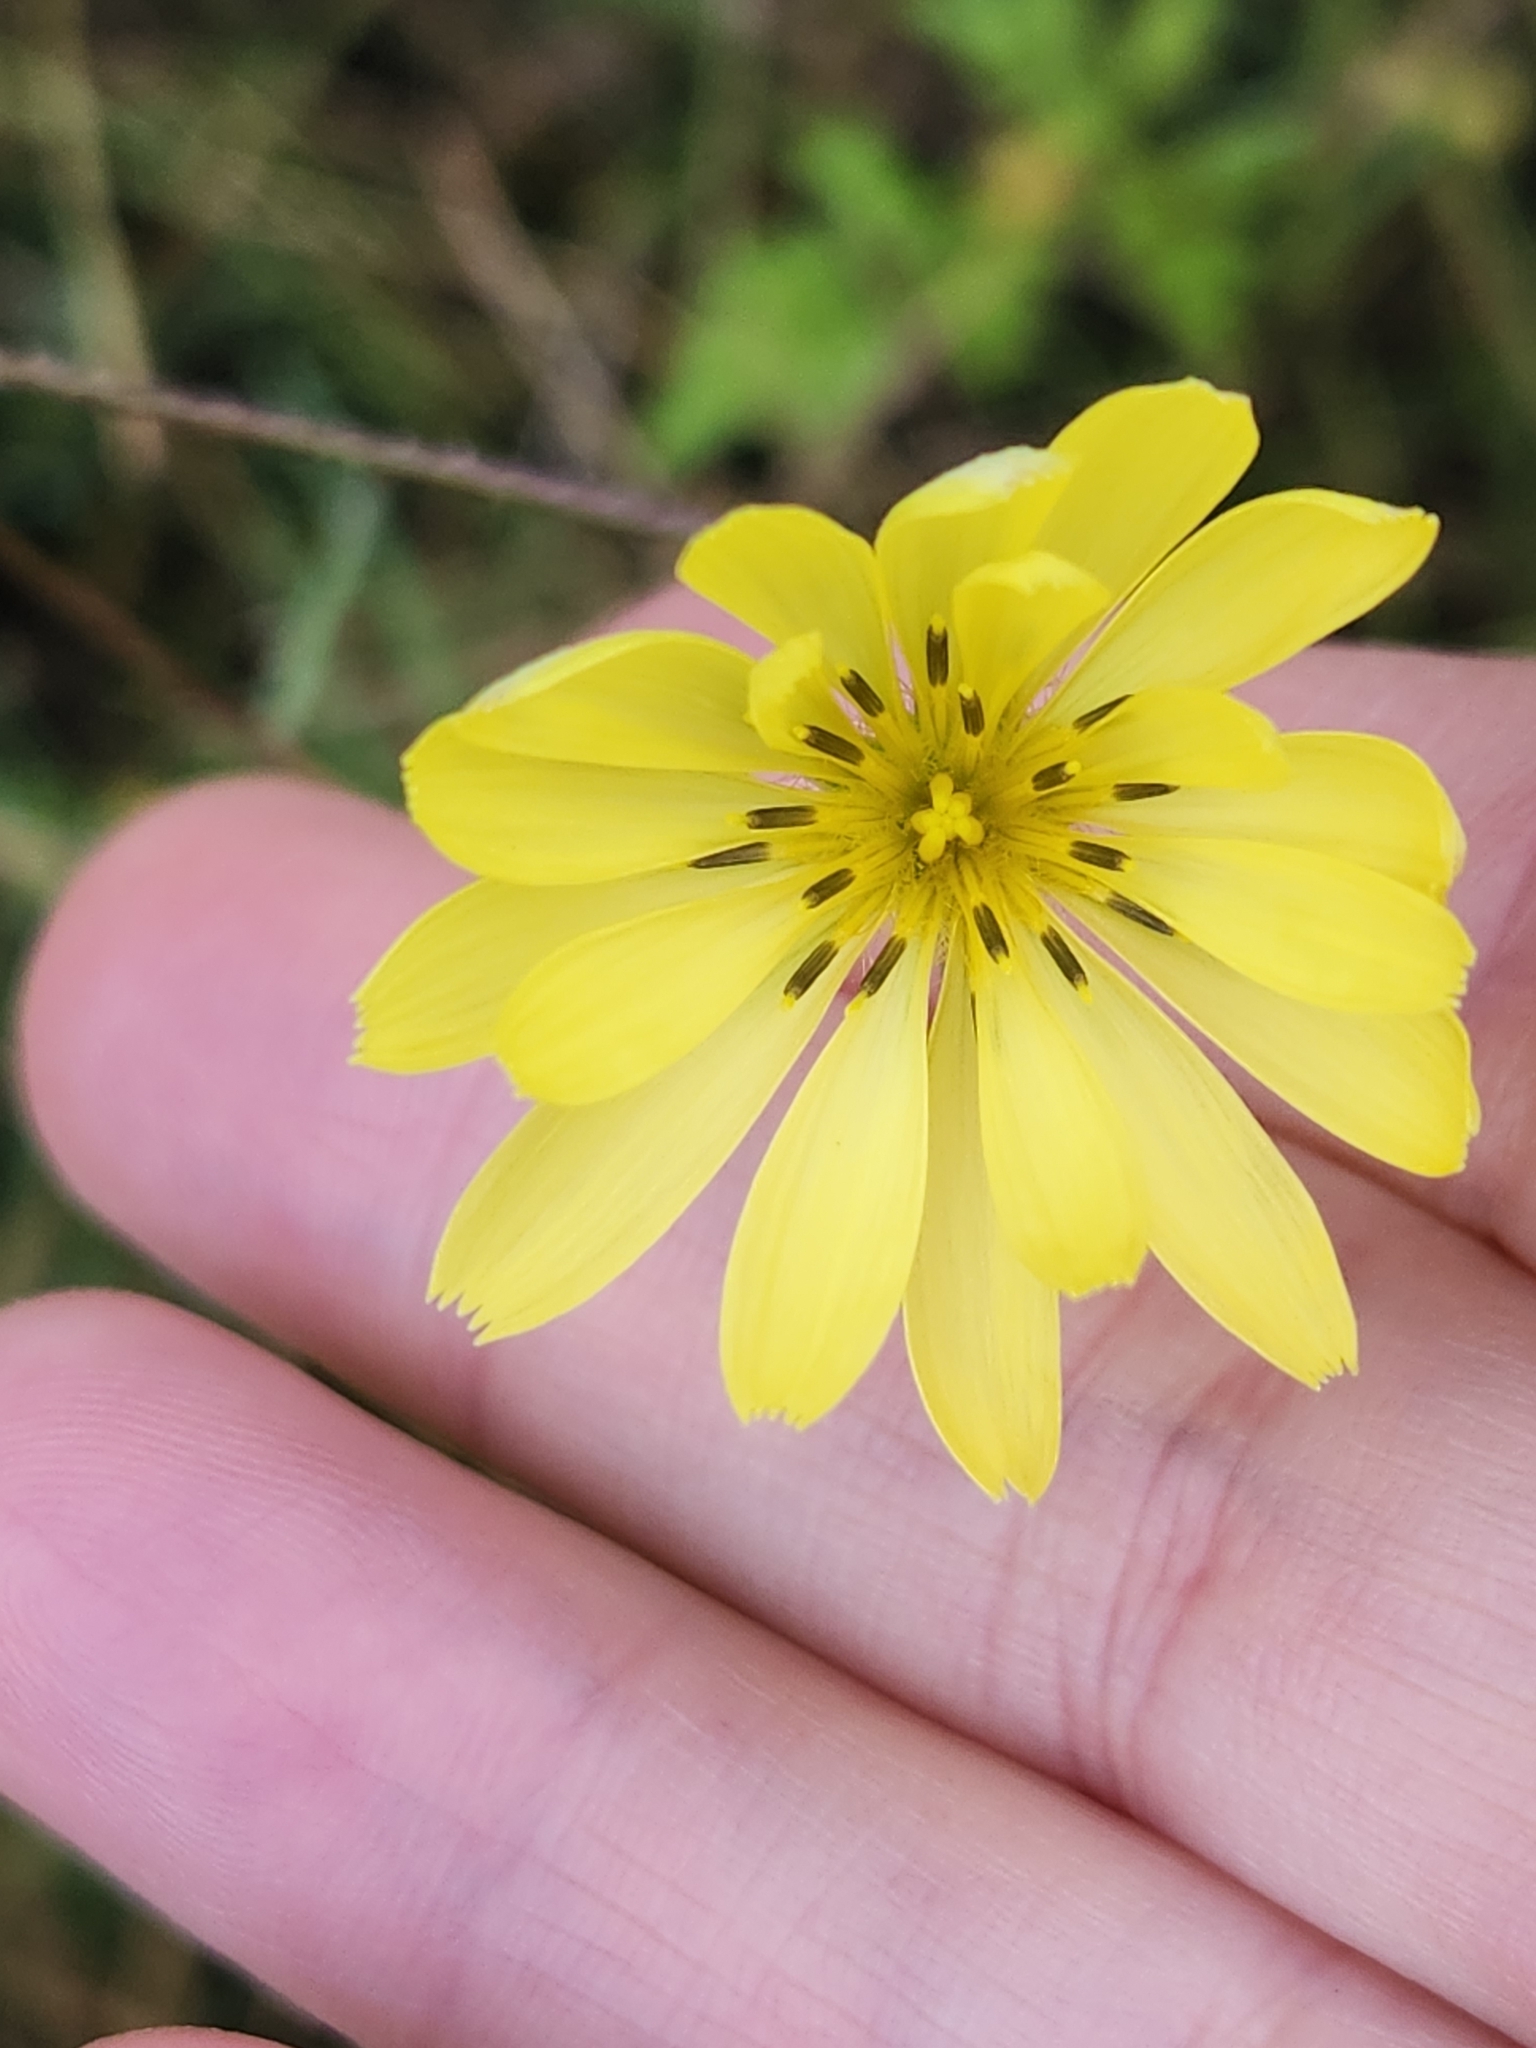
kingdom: Plantae
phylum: Tracheophyta
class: Magnoliopsida
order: Asterales
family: Asteraceae
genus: Pyrrhopappus
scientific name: Pyrrhopappus pauciflorus
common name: Texas false dandelion
